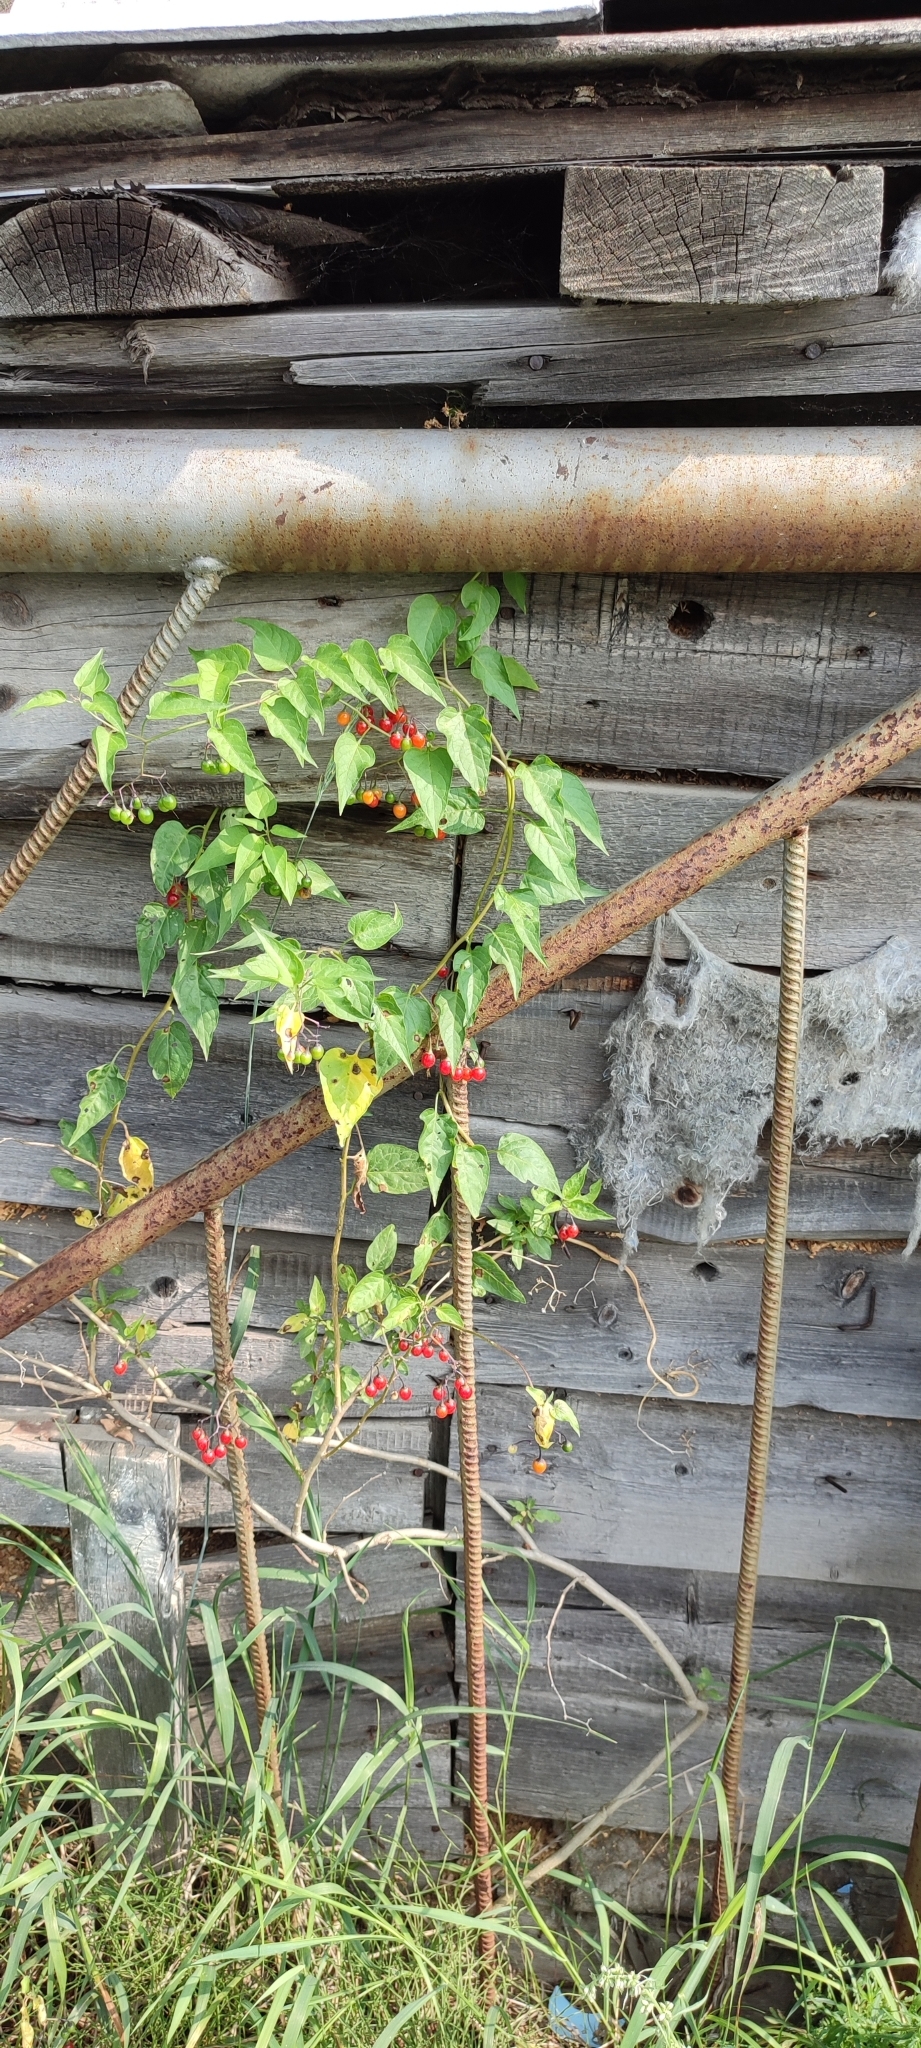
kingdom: Plantae
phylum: Tracheophyta
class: Magnoliopsida
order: Solanales
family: Solanaceae
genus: Solanum
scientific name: Solanum dulcamara
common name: Climbing nightshade
